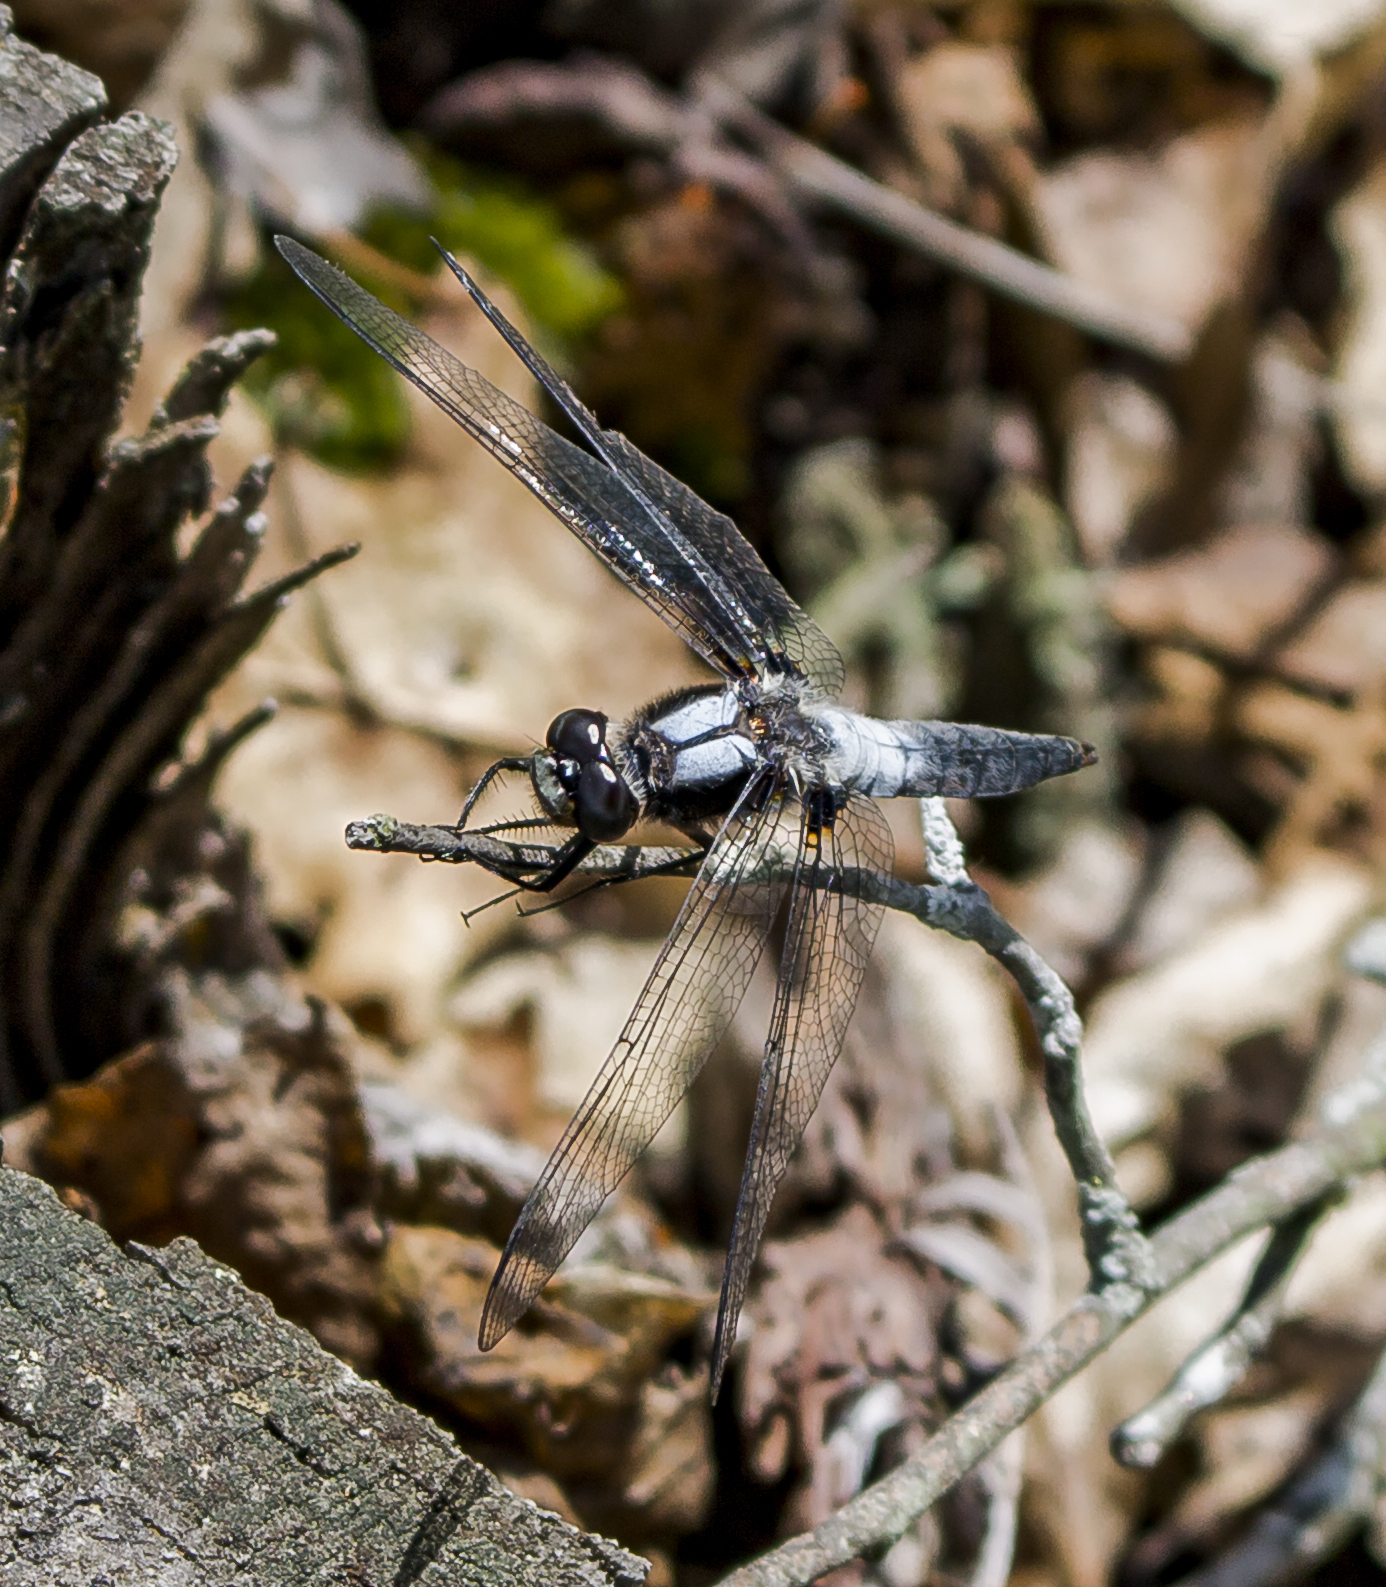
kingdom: Animalia
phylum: Arthropoda
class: Insecta
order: Odonata
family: Libellulidae
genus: Ladona
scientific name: Ladona julia
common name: Chalk-fronted corporal
